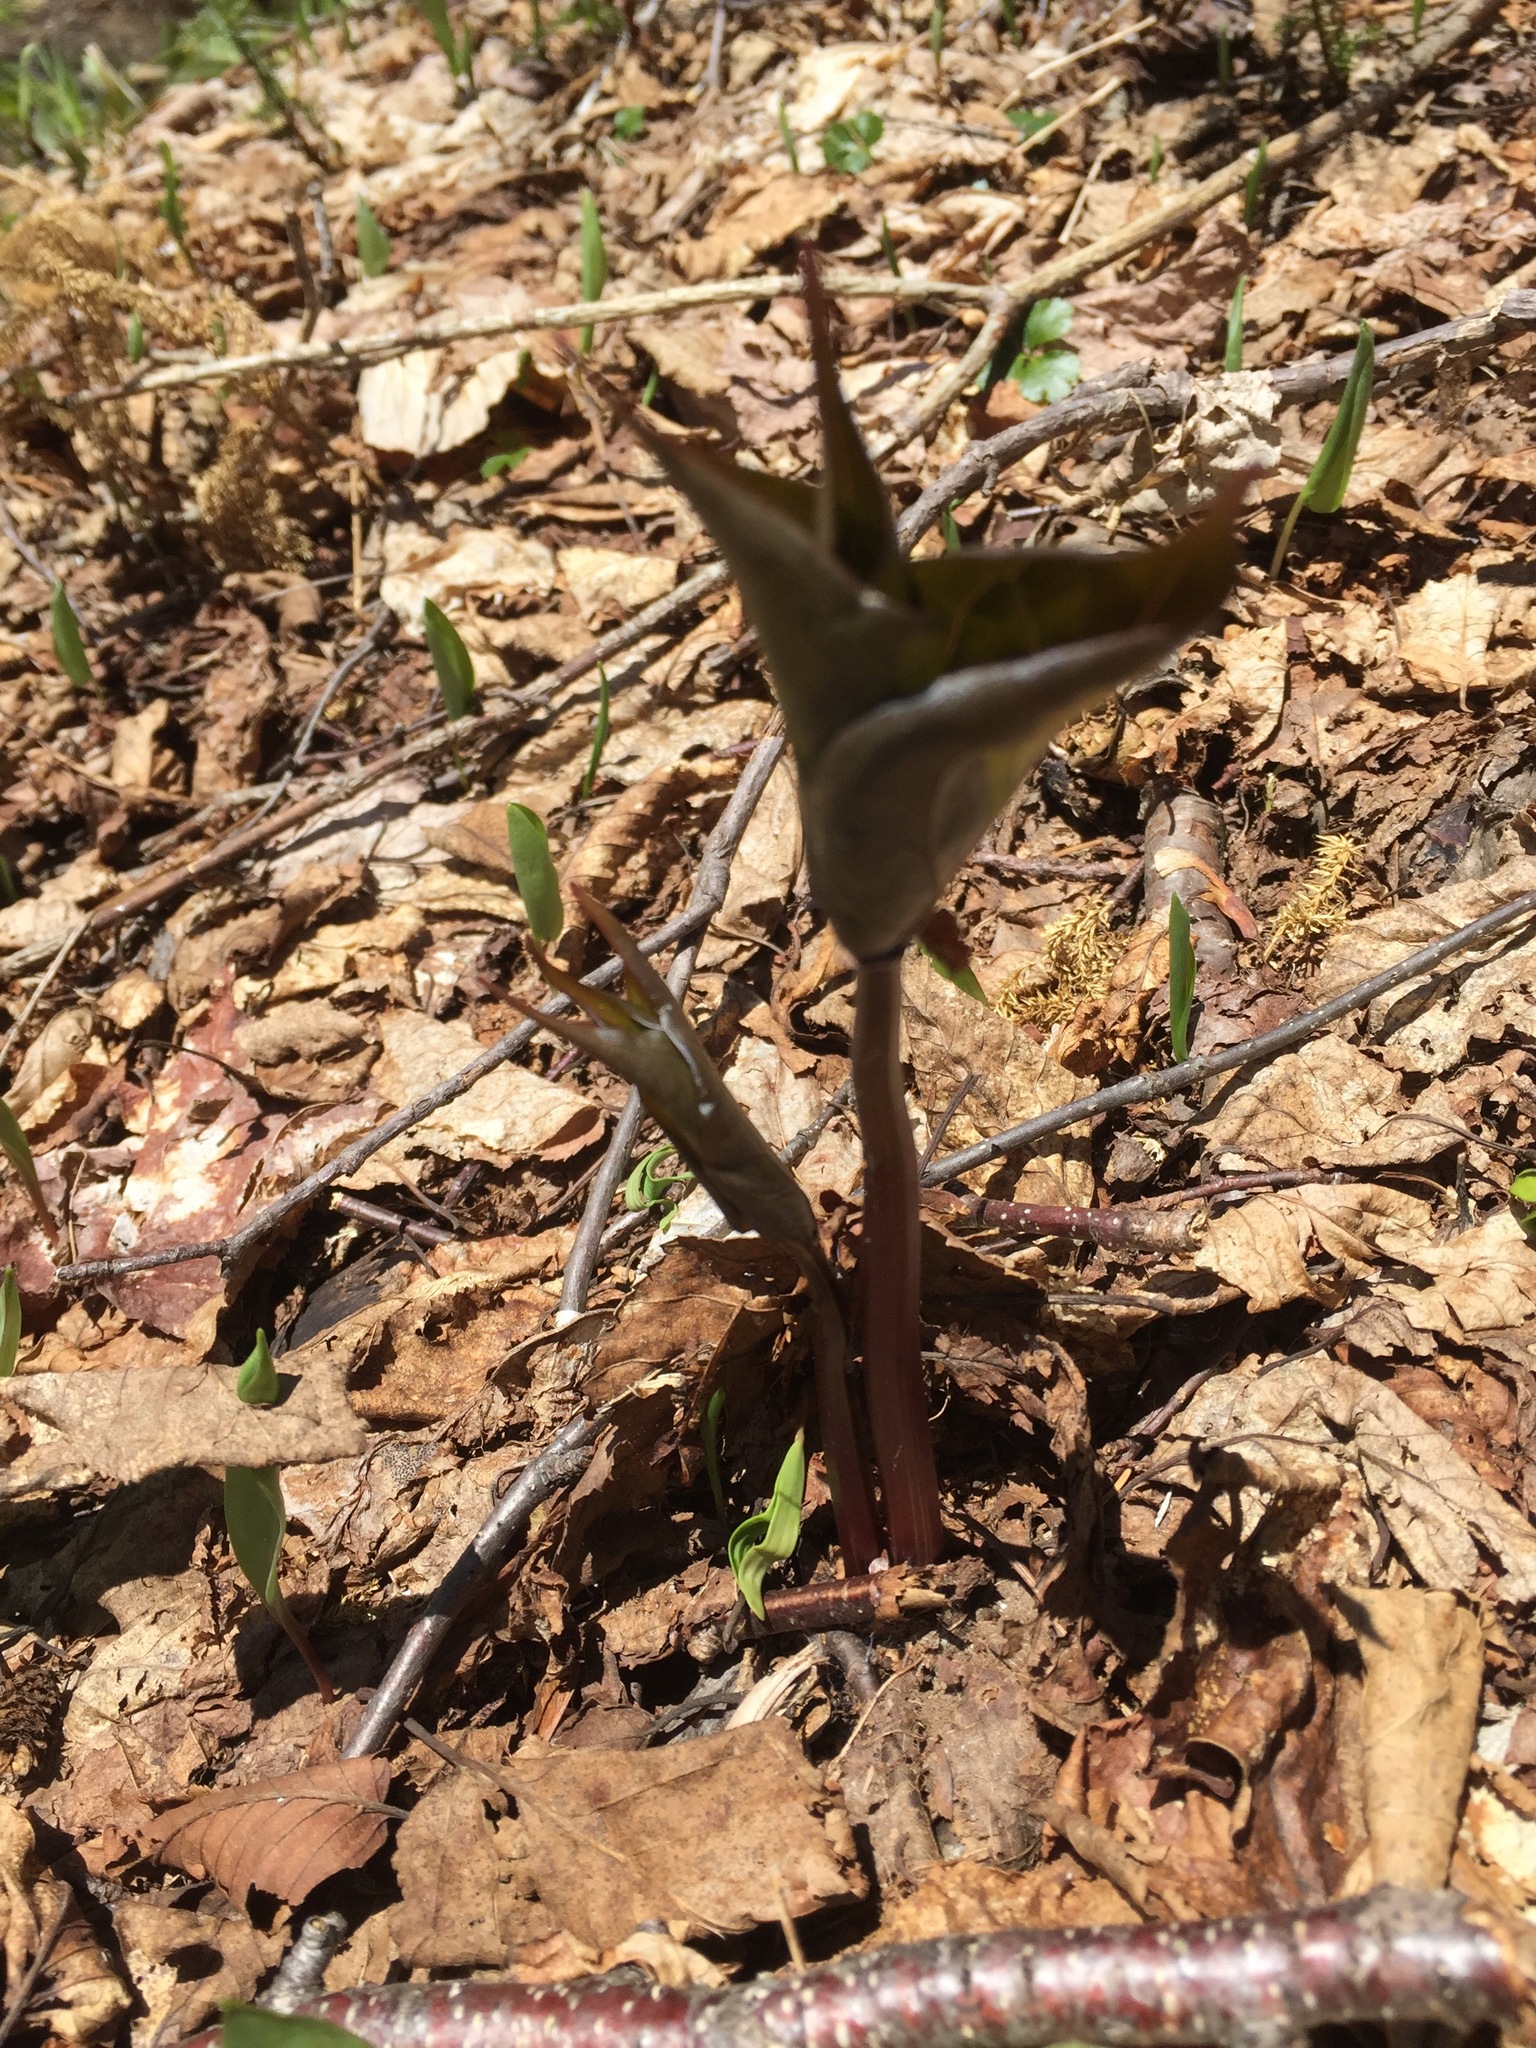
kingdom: Plantae
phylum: Tracheophyta
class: Liliopsida
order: Liliales
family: Melanthiaceae
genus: Trillium
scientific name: Trillium undulatum
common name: Paint trillium
